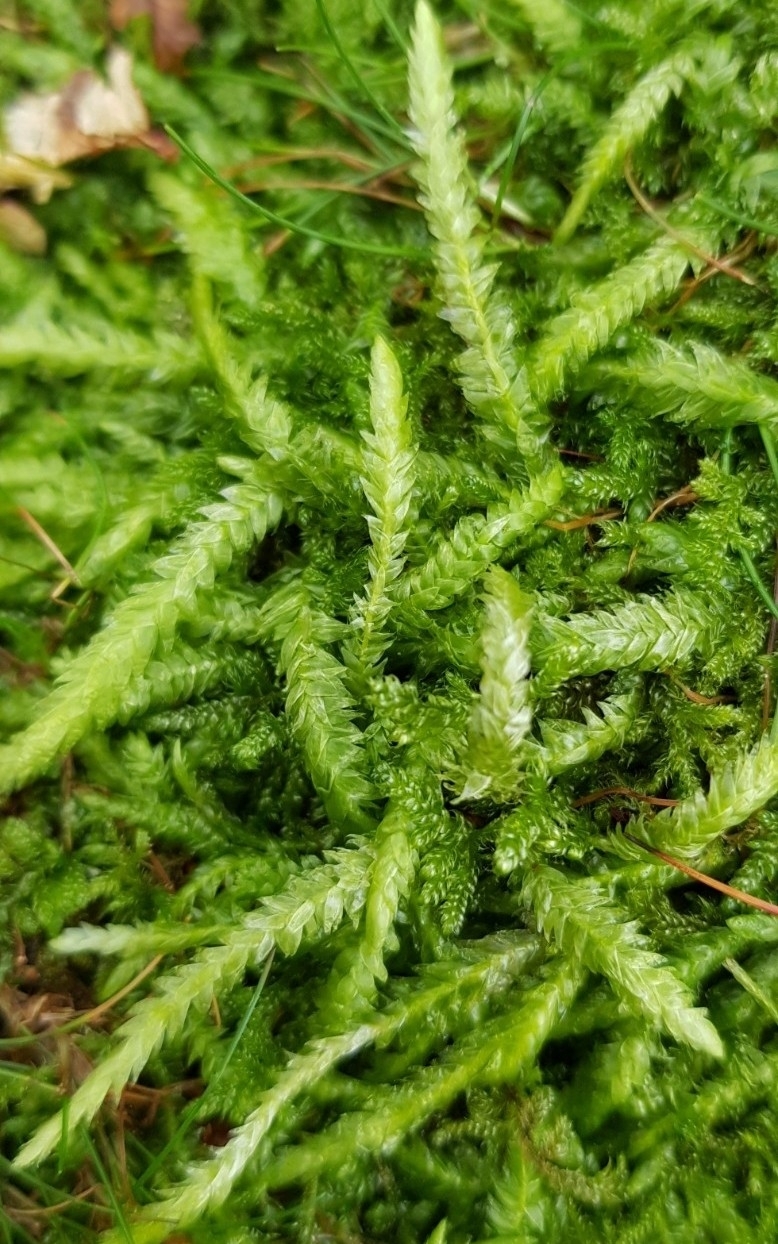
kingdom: Plantae
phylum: Bryophyta
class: Bryopsida
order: Hypnales
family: Plagiotheciaceae
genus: Plagiothecium
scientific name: Plagiothecium undulatum
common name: Waved silk-moss
